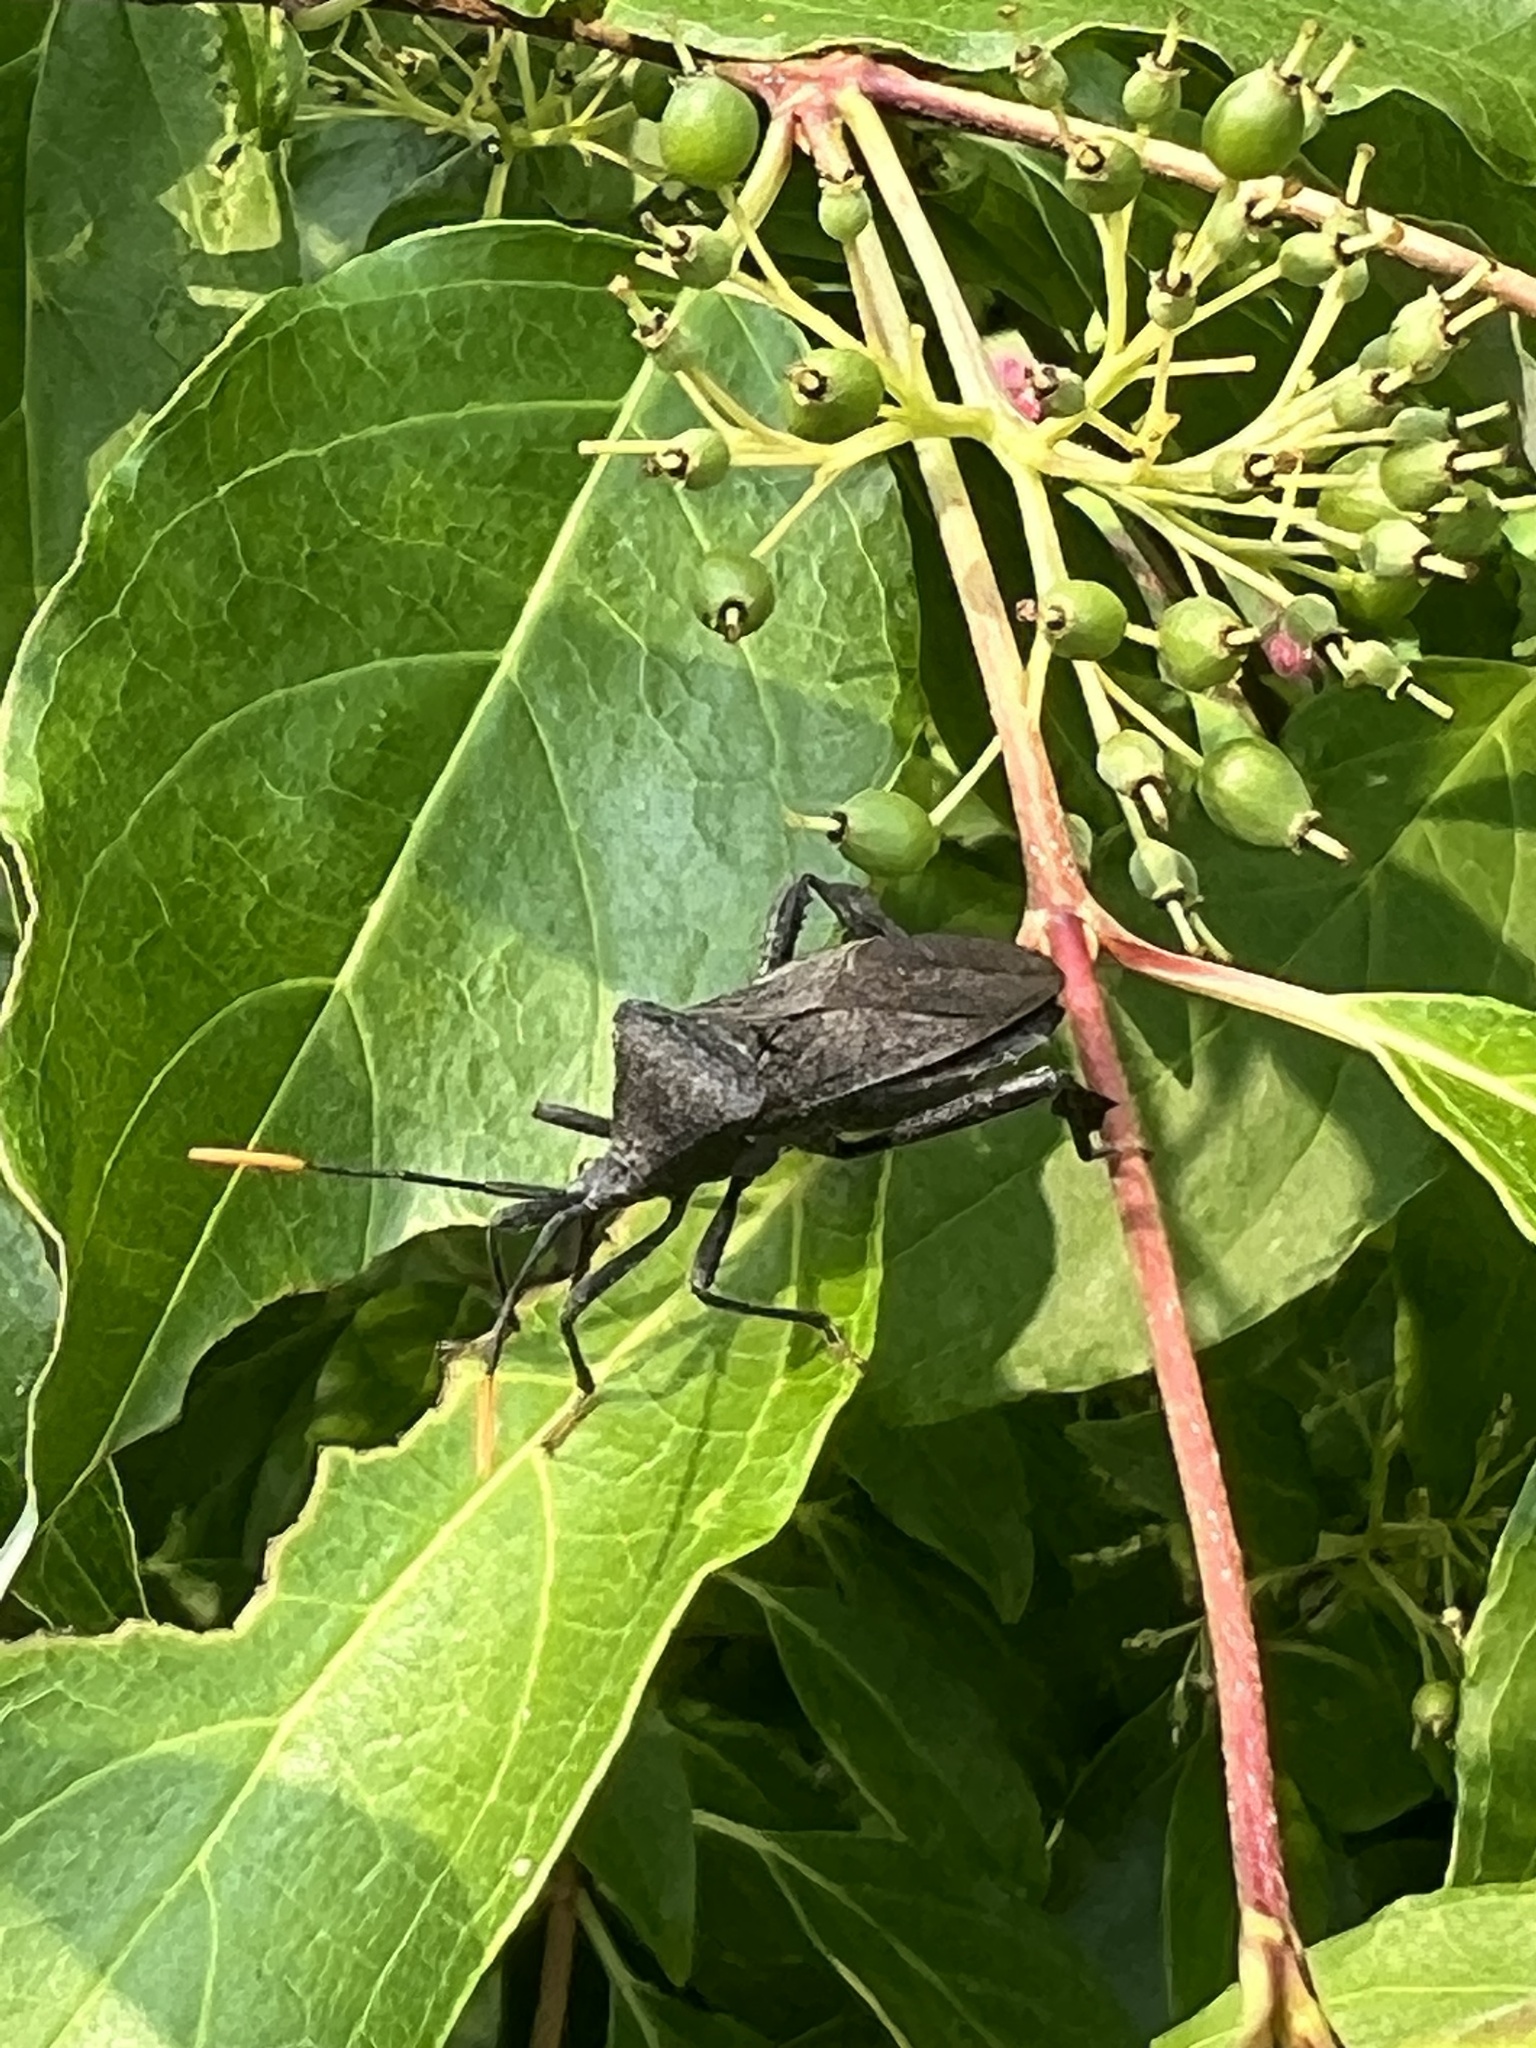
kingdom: Animalia
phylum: Arthropoda
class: Insecta
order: Hemiptera
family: Coreidae
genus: Acanthocephala
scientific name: Acanthocephala terminalis
